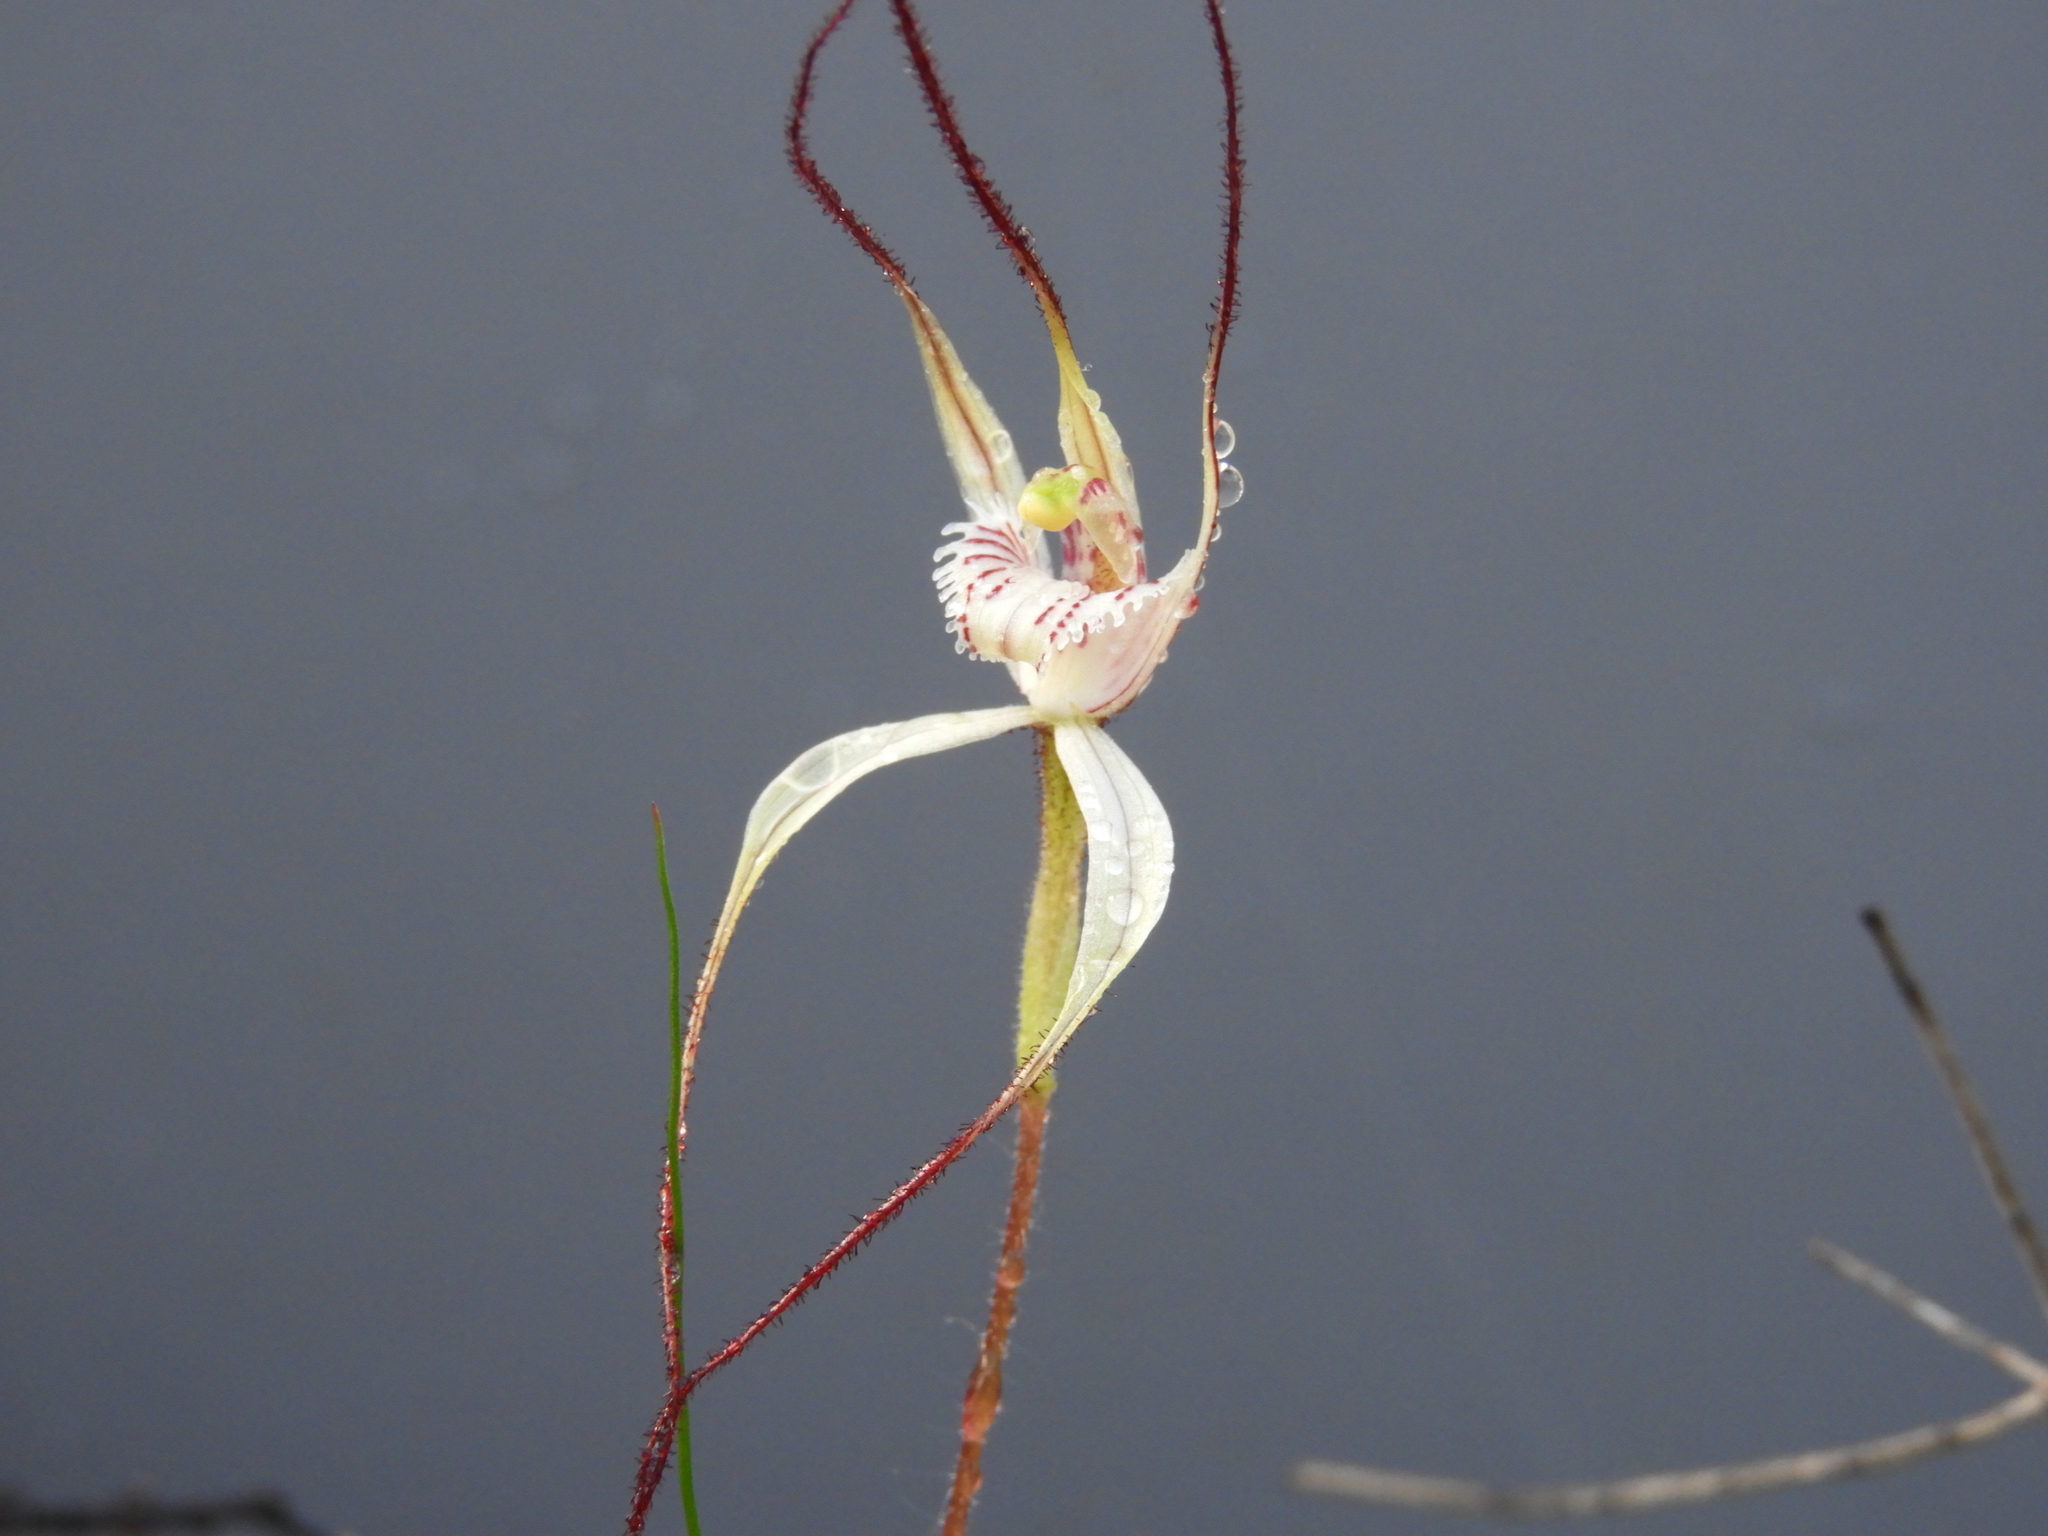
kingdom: Plantae
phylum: Tracheophyta
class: Liliopsida
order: Asparagales
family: Orchidaceae
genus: Caladenia
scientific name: Caladenia varians
